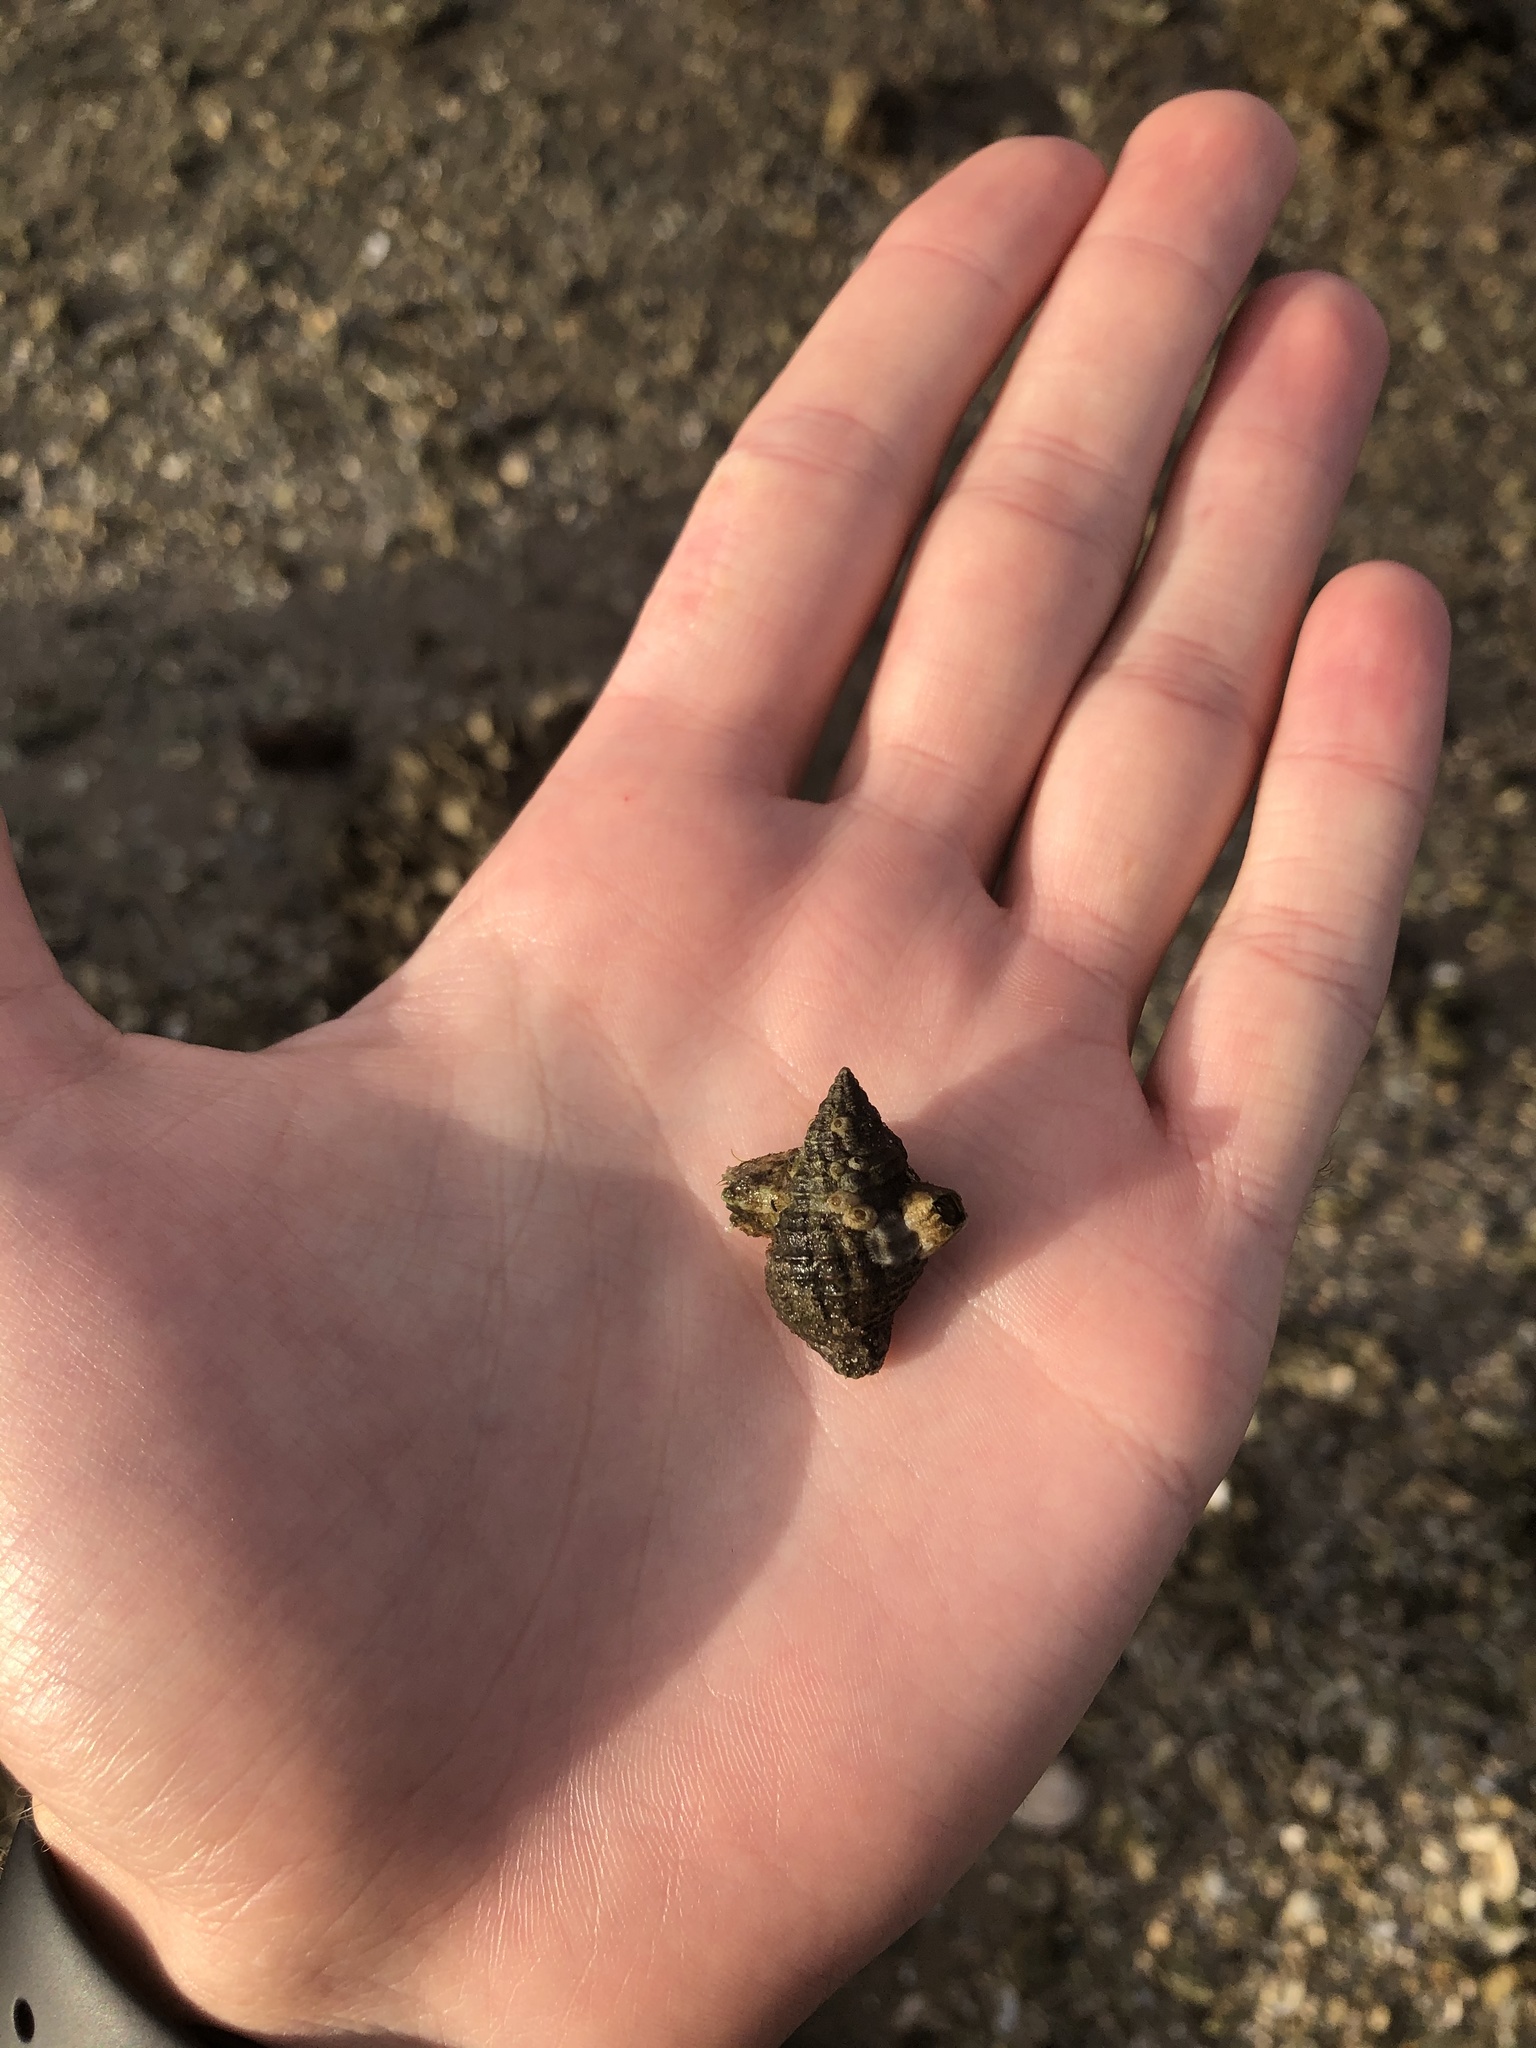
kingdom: Animalia
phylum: Mollusca
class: Gastropoda
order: Neogastropoda
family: Pisaniidae
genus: Gemophos
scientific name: Gemophos tinctus
